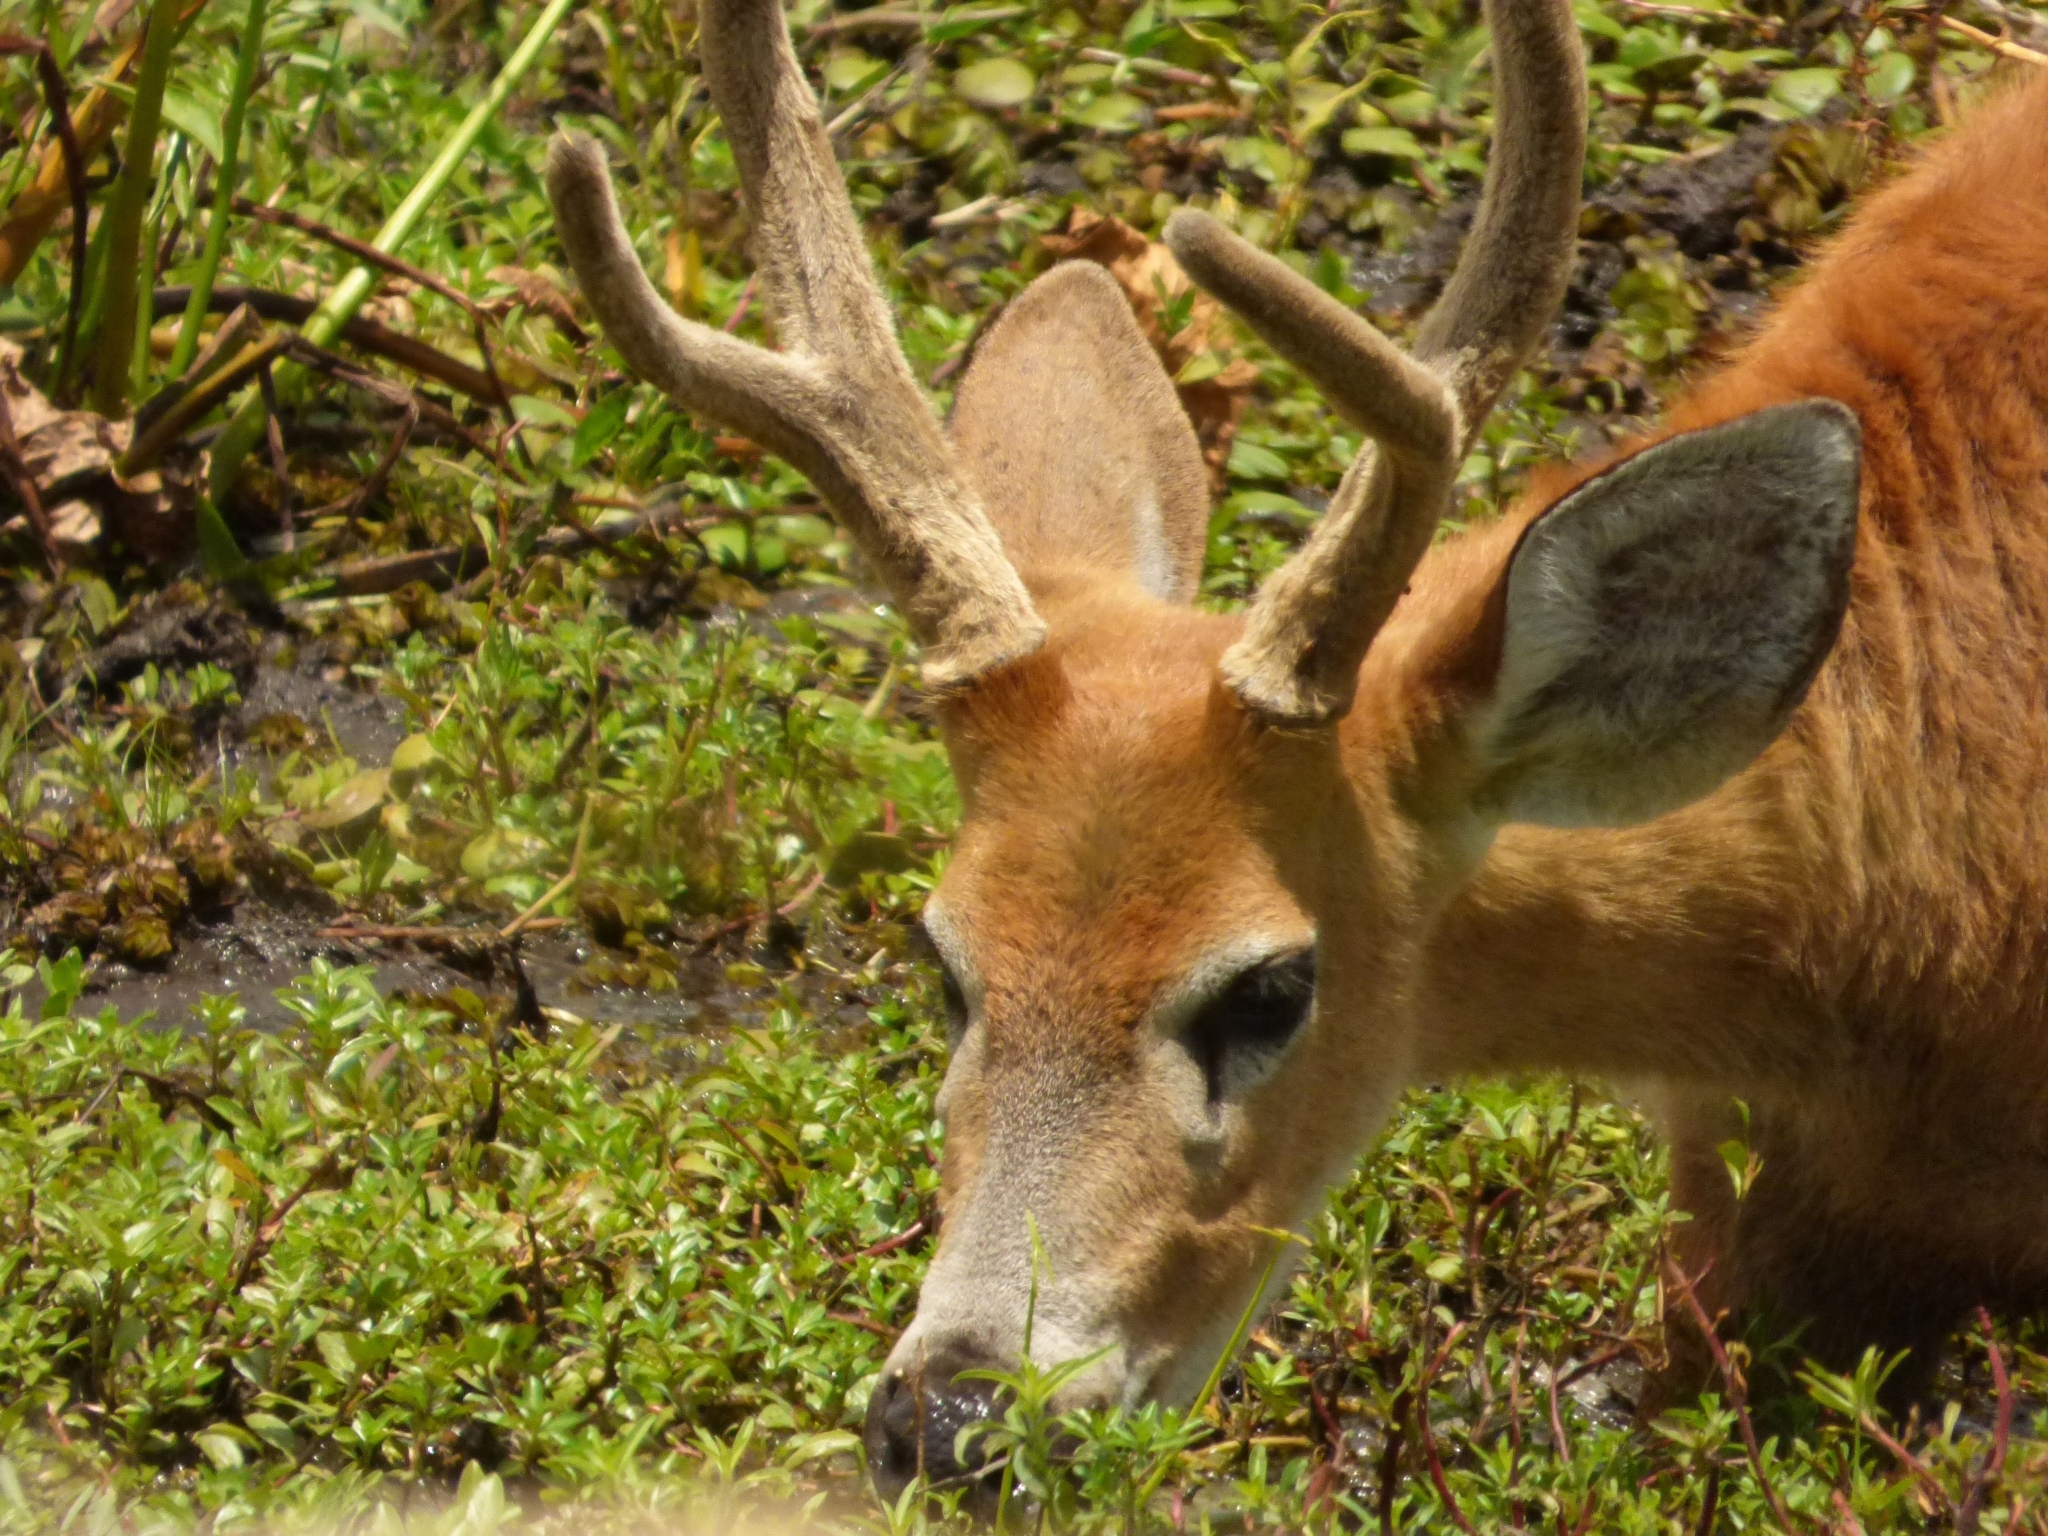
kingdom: Animalia
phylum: Chordata
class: Mammalia
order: Artiodactyla
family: Cervidae
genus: Blastocerus
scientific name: Blastocerus dichotomus
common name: Marsh deer
